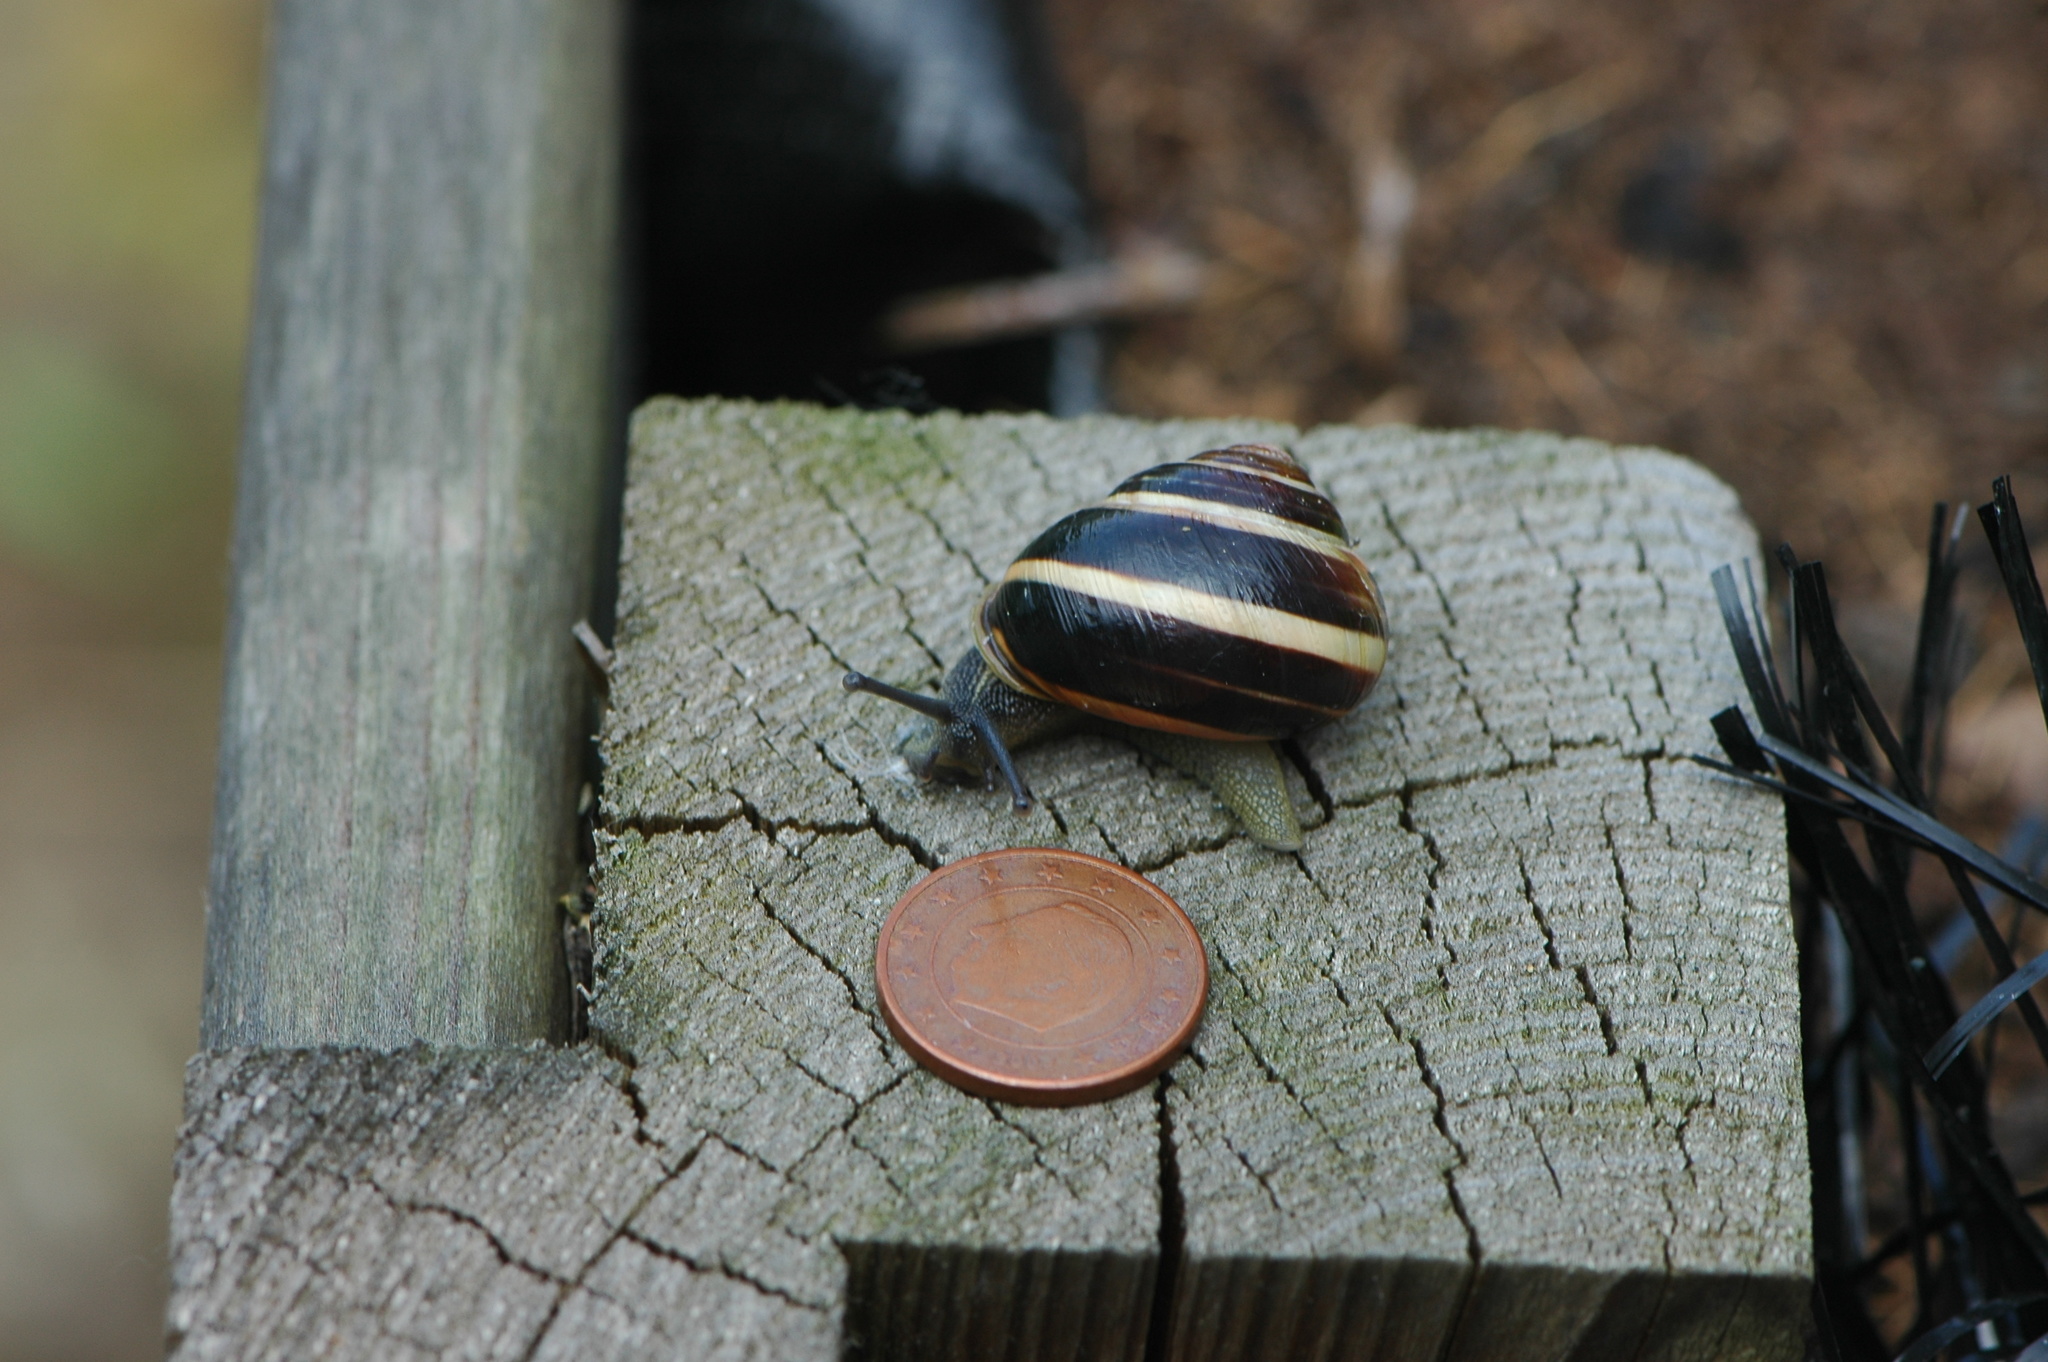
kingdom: Animalia
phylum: Mollusca
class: Gastropoda
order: Stylommatophora
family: Helicidae
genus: Cepaea
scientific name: Cepaea nemoralis
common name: Grovesnail
